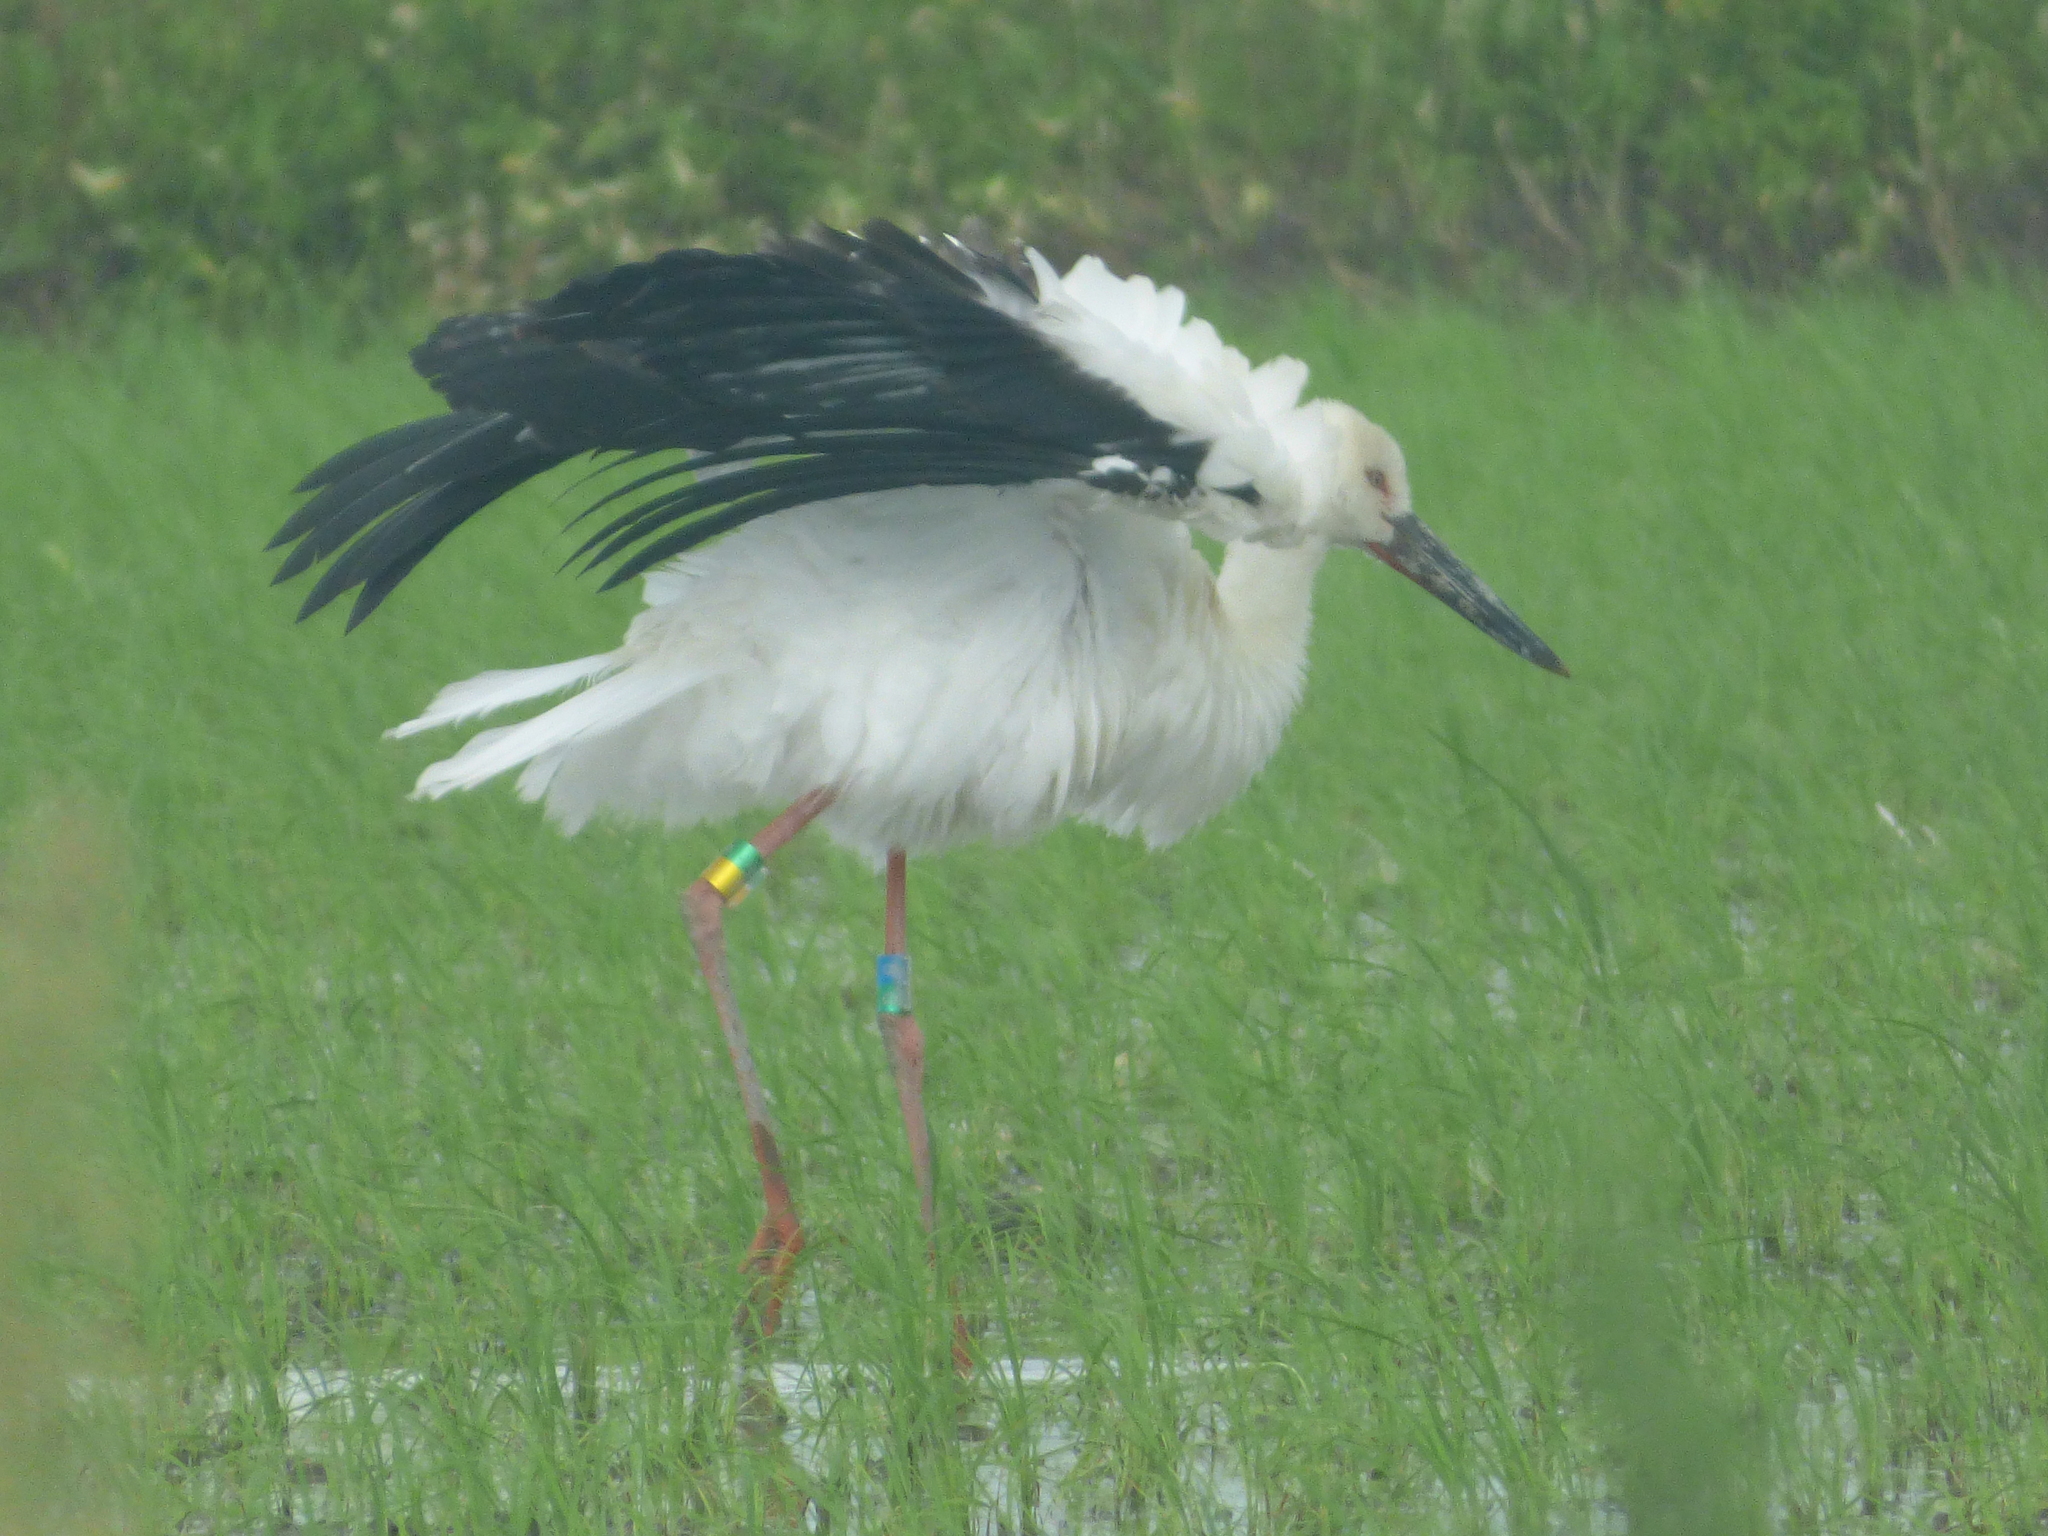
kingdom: Animalia
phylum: Chordata
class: Aves
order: Ciconiiformes
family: Ciconiidae
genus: Ciconia
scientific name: Ciconia boyciana
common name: Oriental stork
